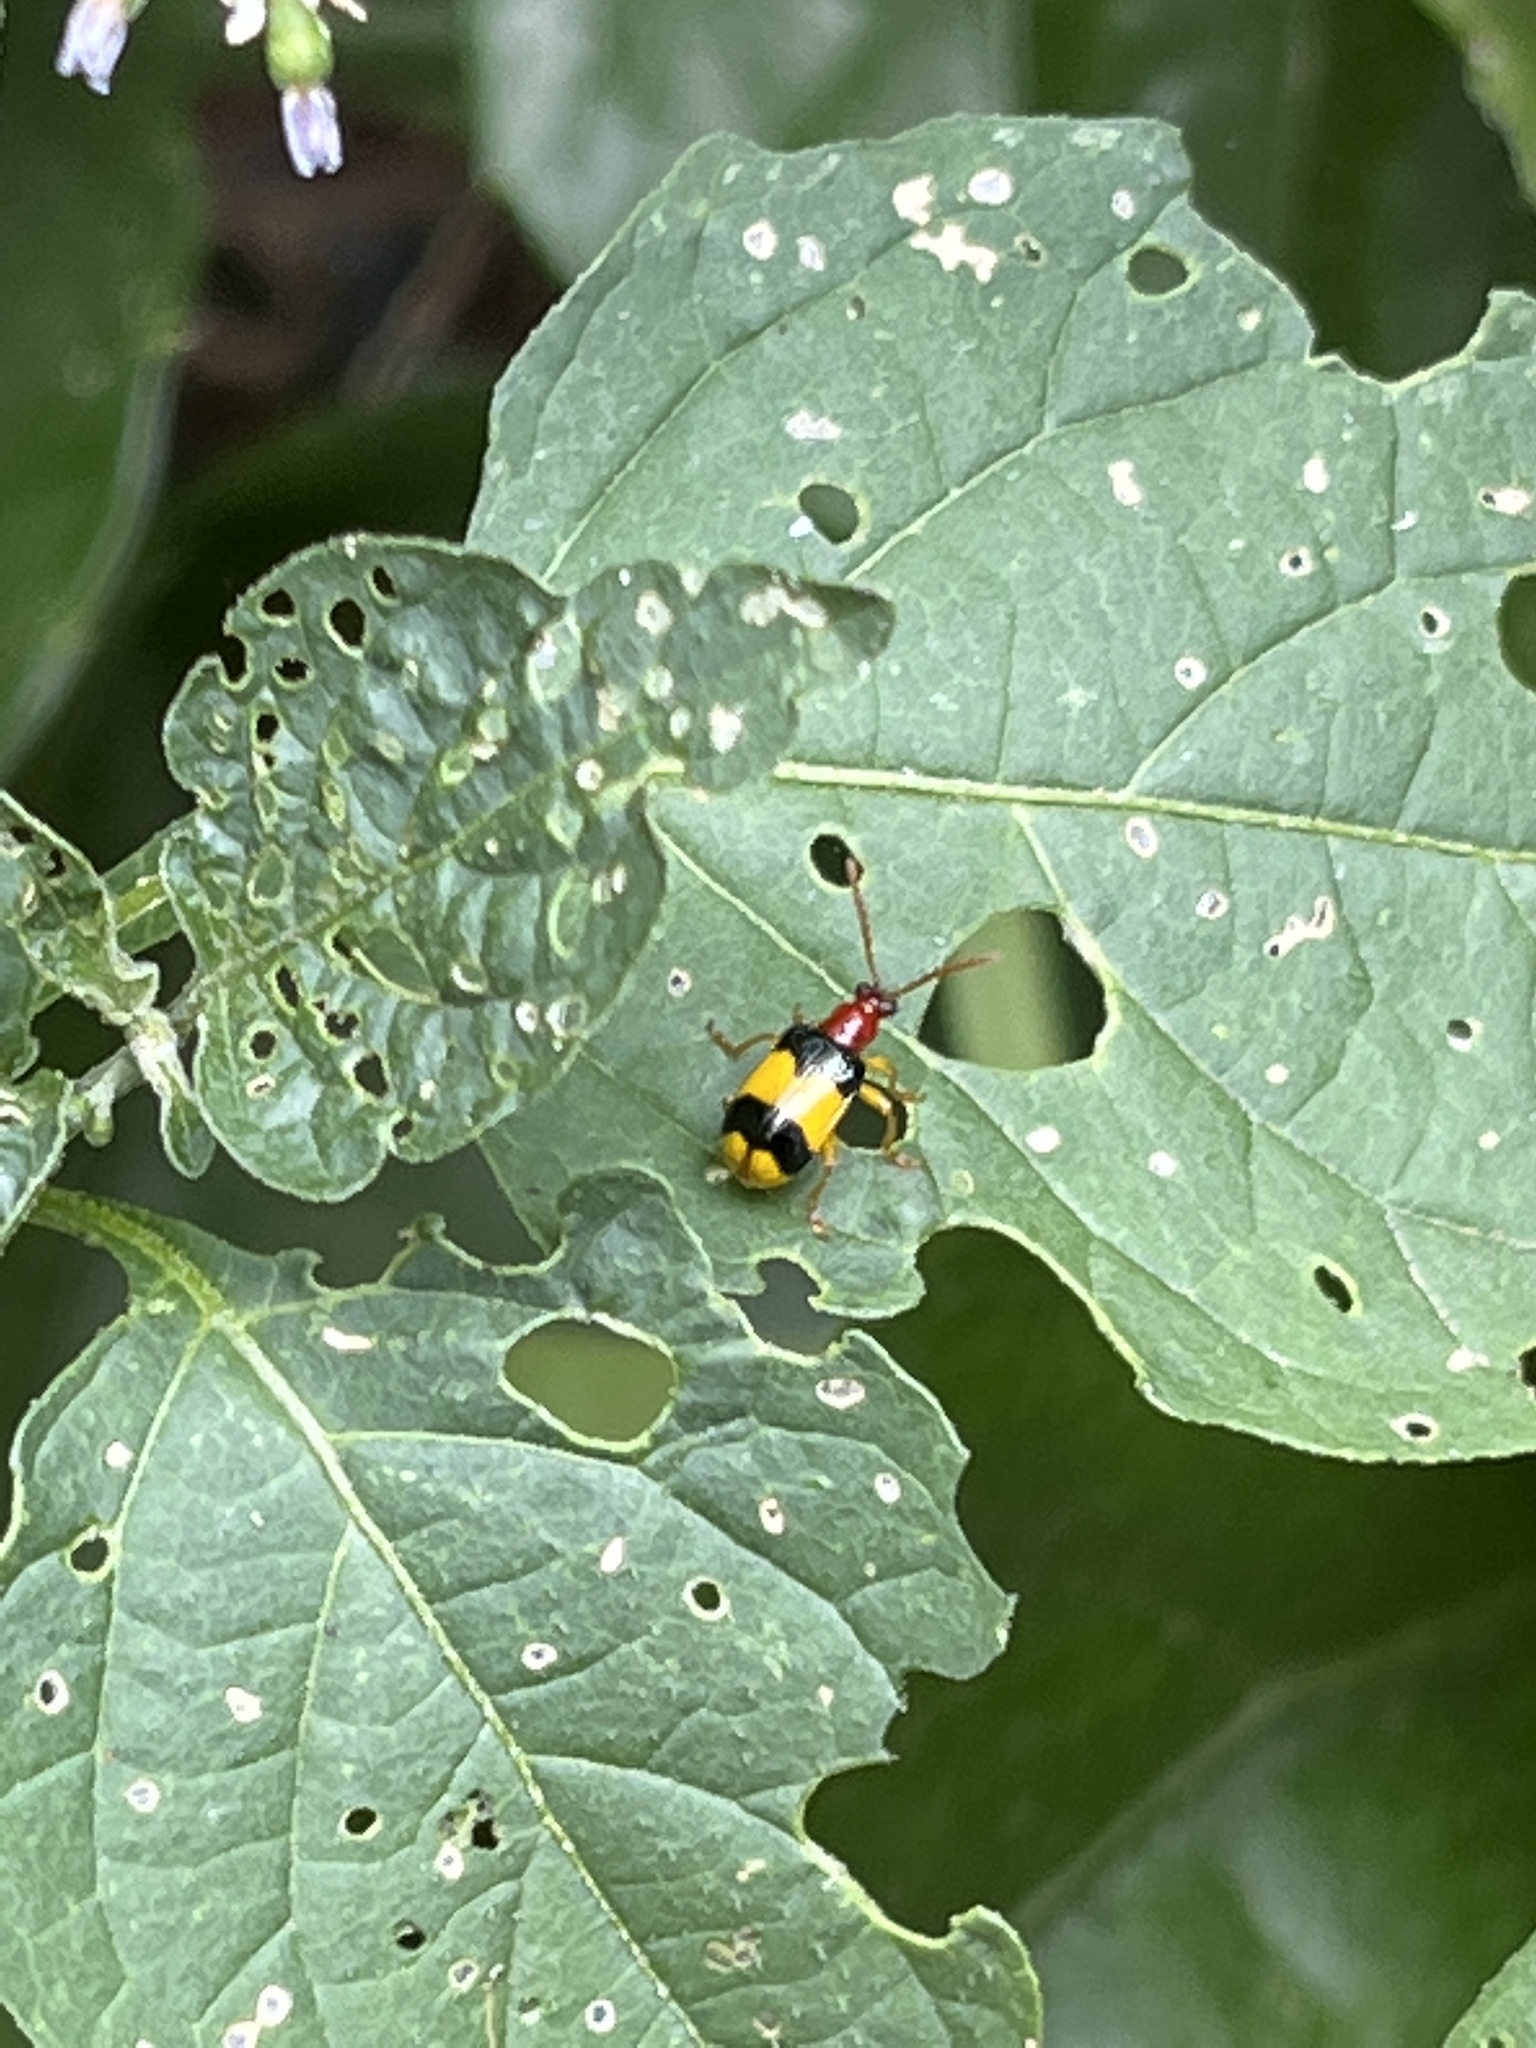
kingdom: Animalia
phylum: Arthropoda
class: Insecta
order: Coleoptera
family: Chrysomelidae
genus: Lema
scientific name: Lema
